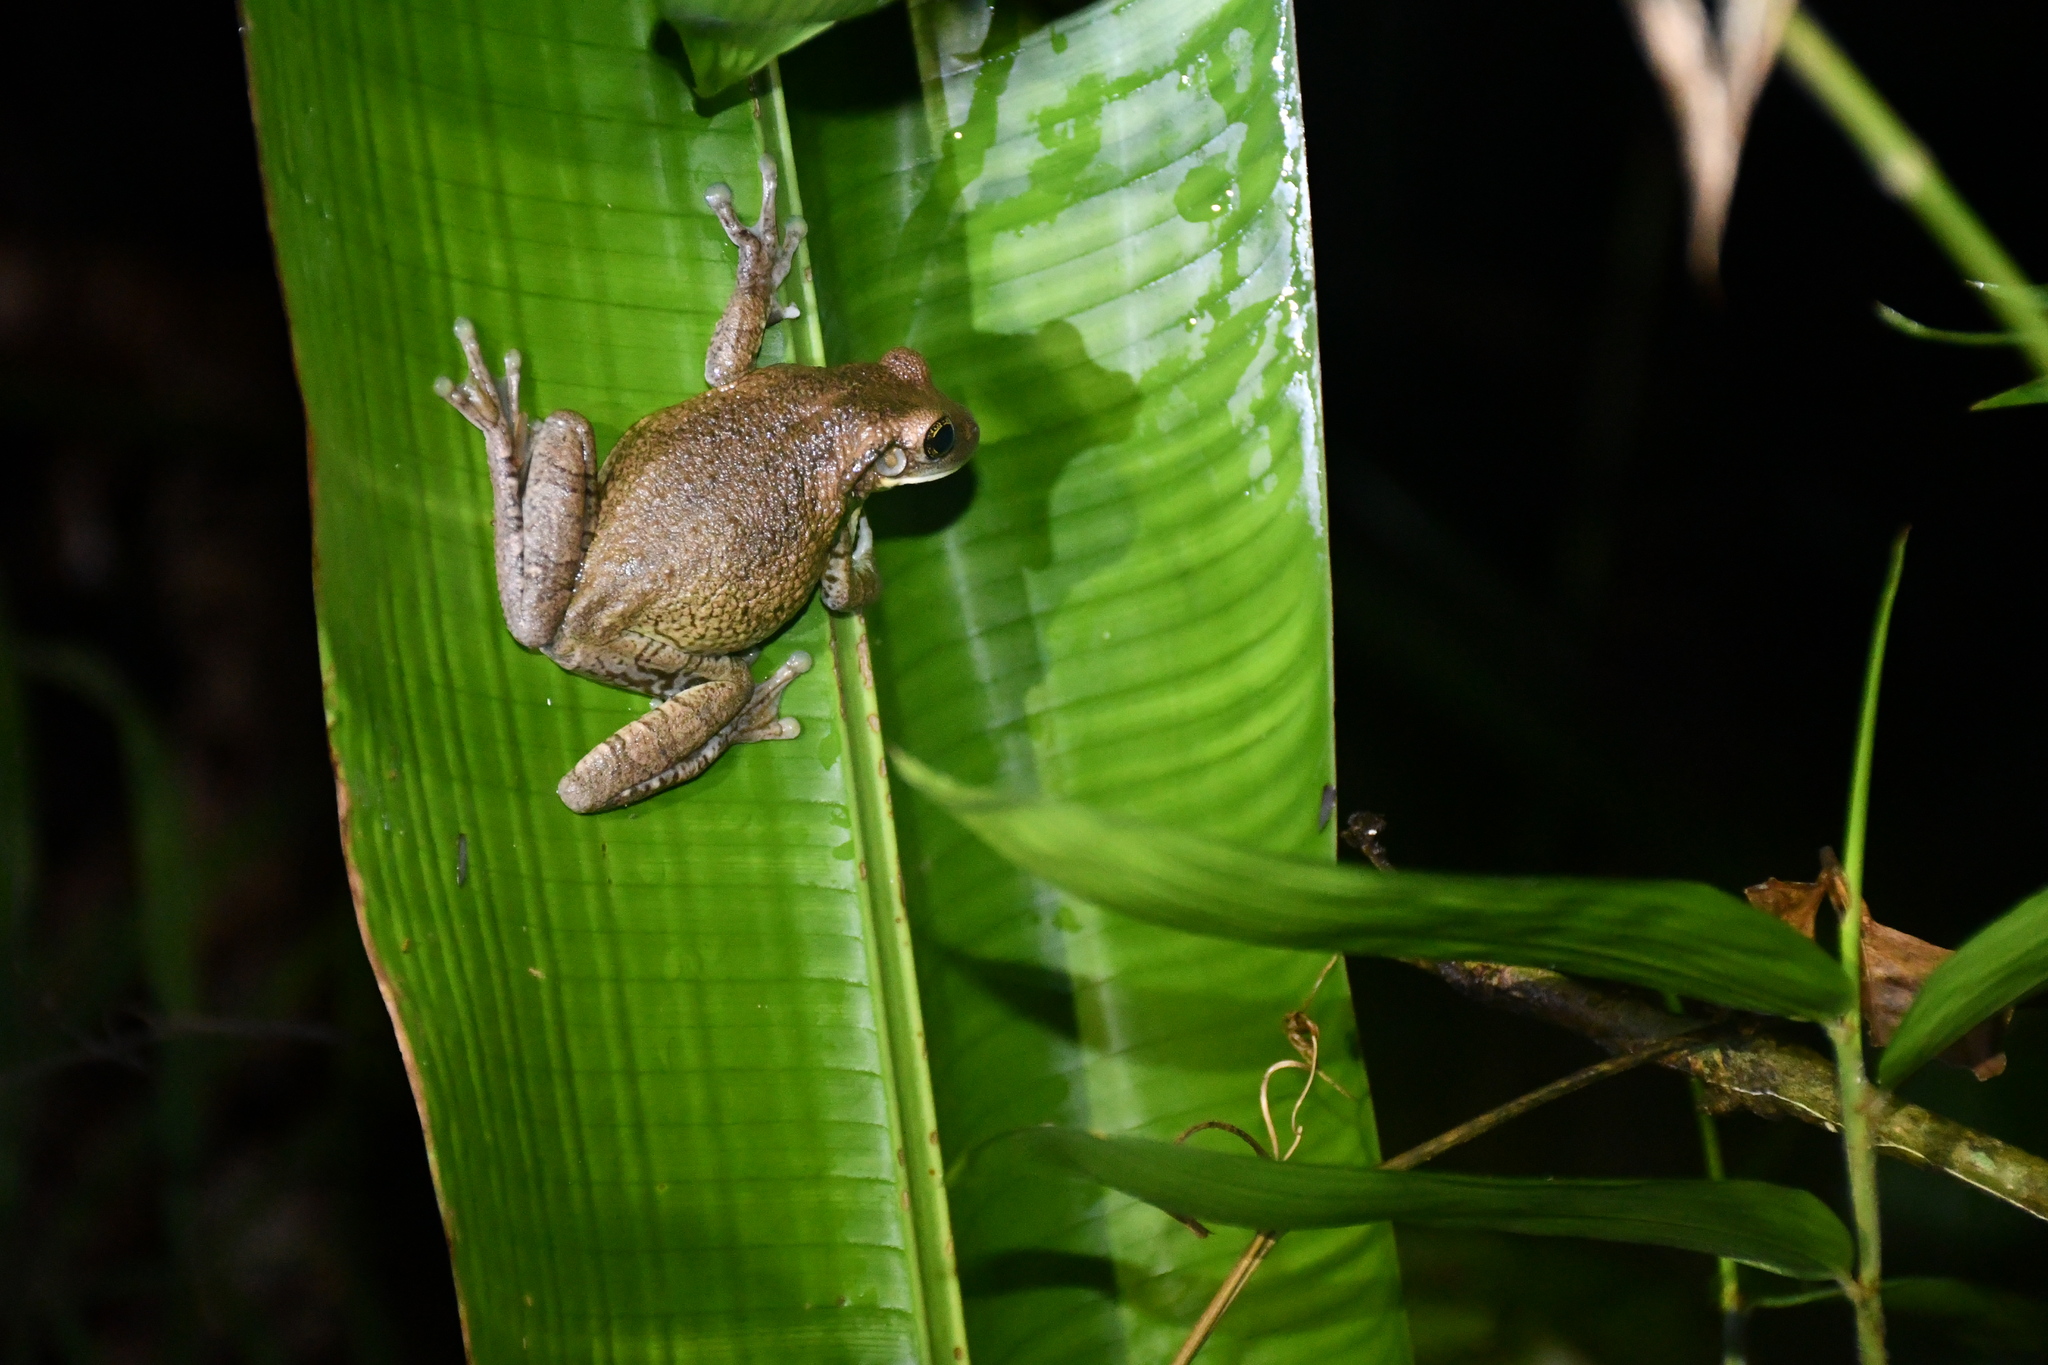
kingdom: Animalia
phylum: Chordata
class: Amphibia
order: Anura
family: Hylidae
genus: Trachycephalus
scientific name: Trachycephalus typhonius
